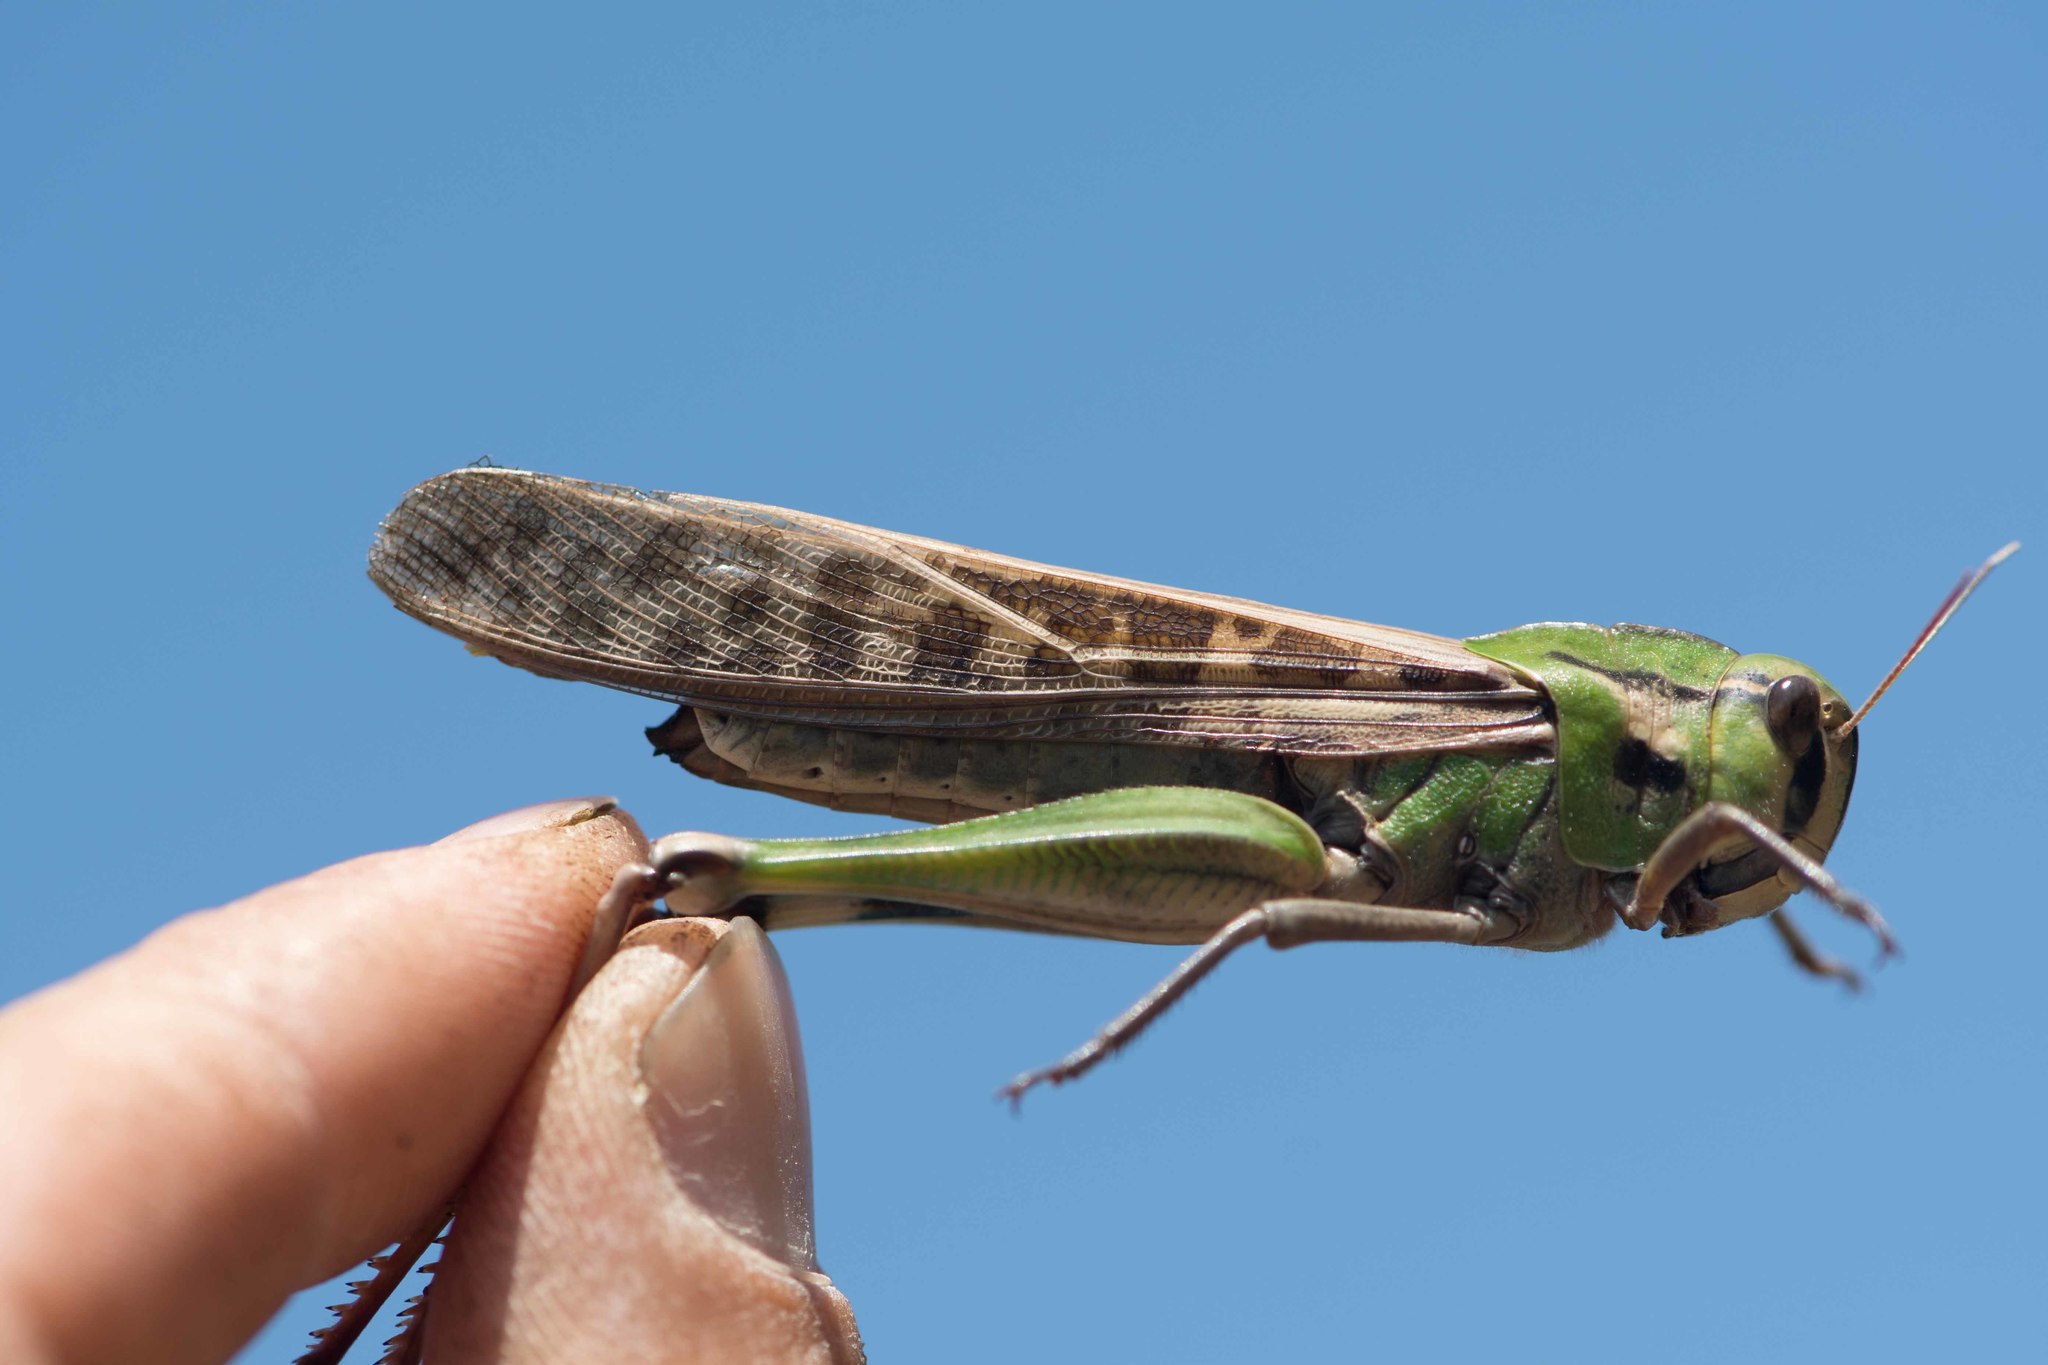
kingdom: Animalia
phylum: Arthropoda
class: Insecta
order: Orthoptera
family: Acrididae
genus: Locusta
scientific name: Locusta migratoria
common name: Migratory locust
